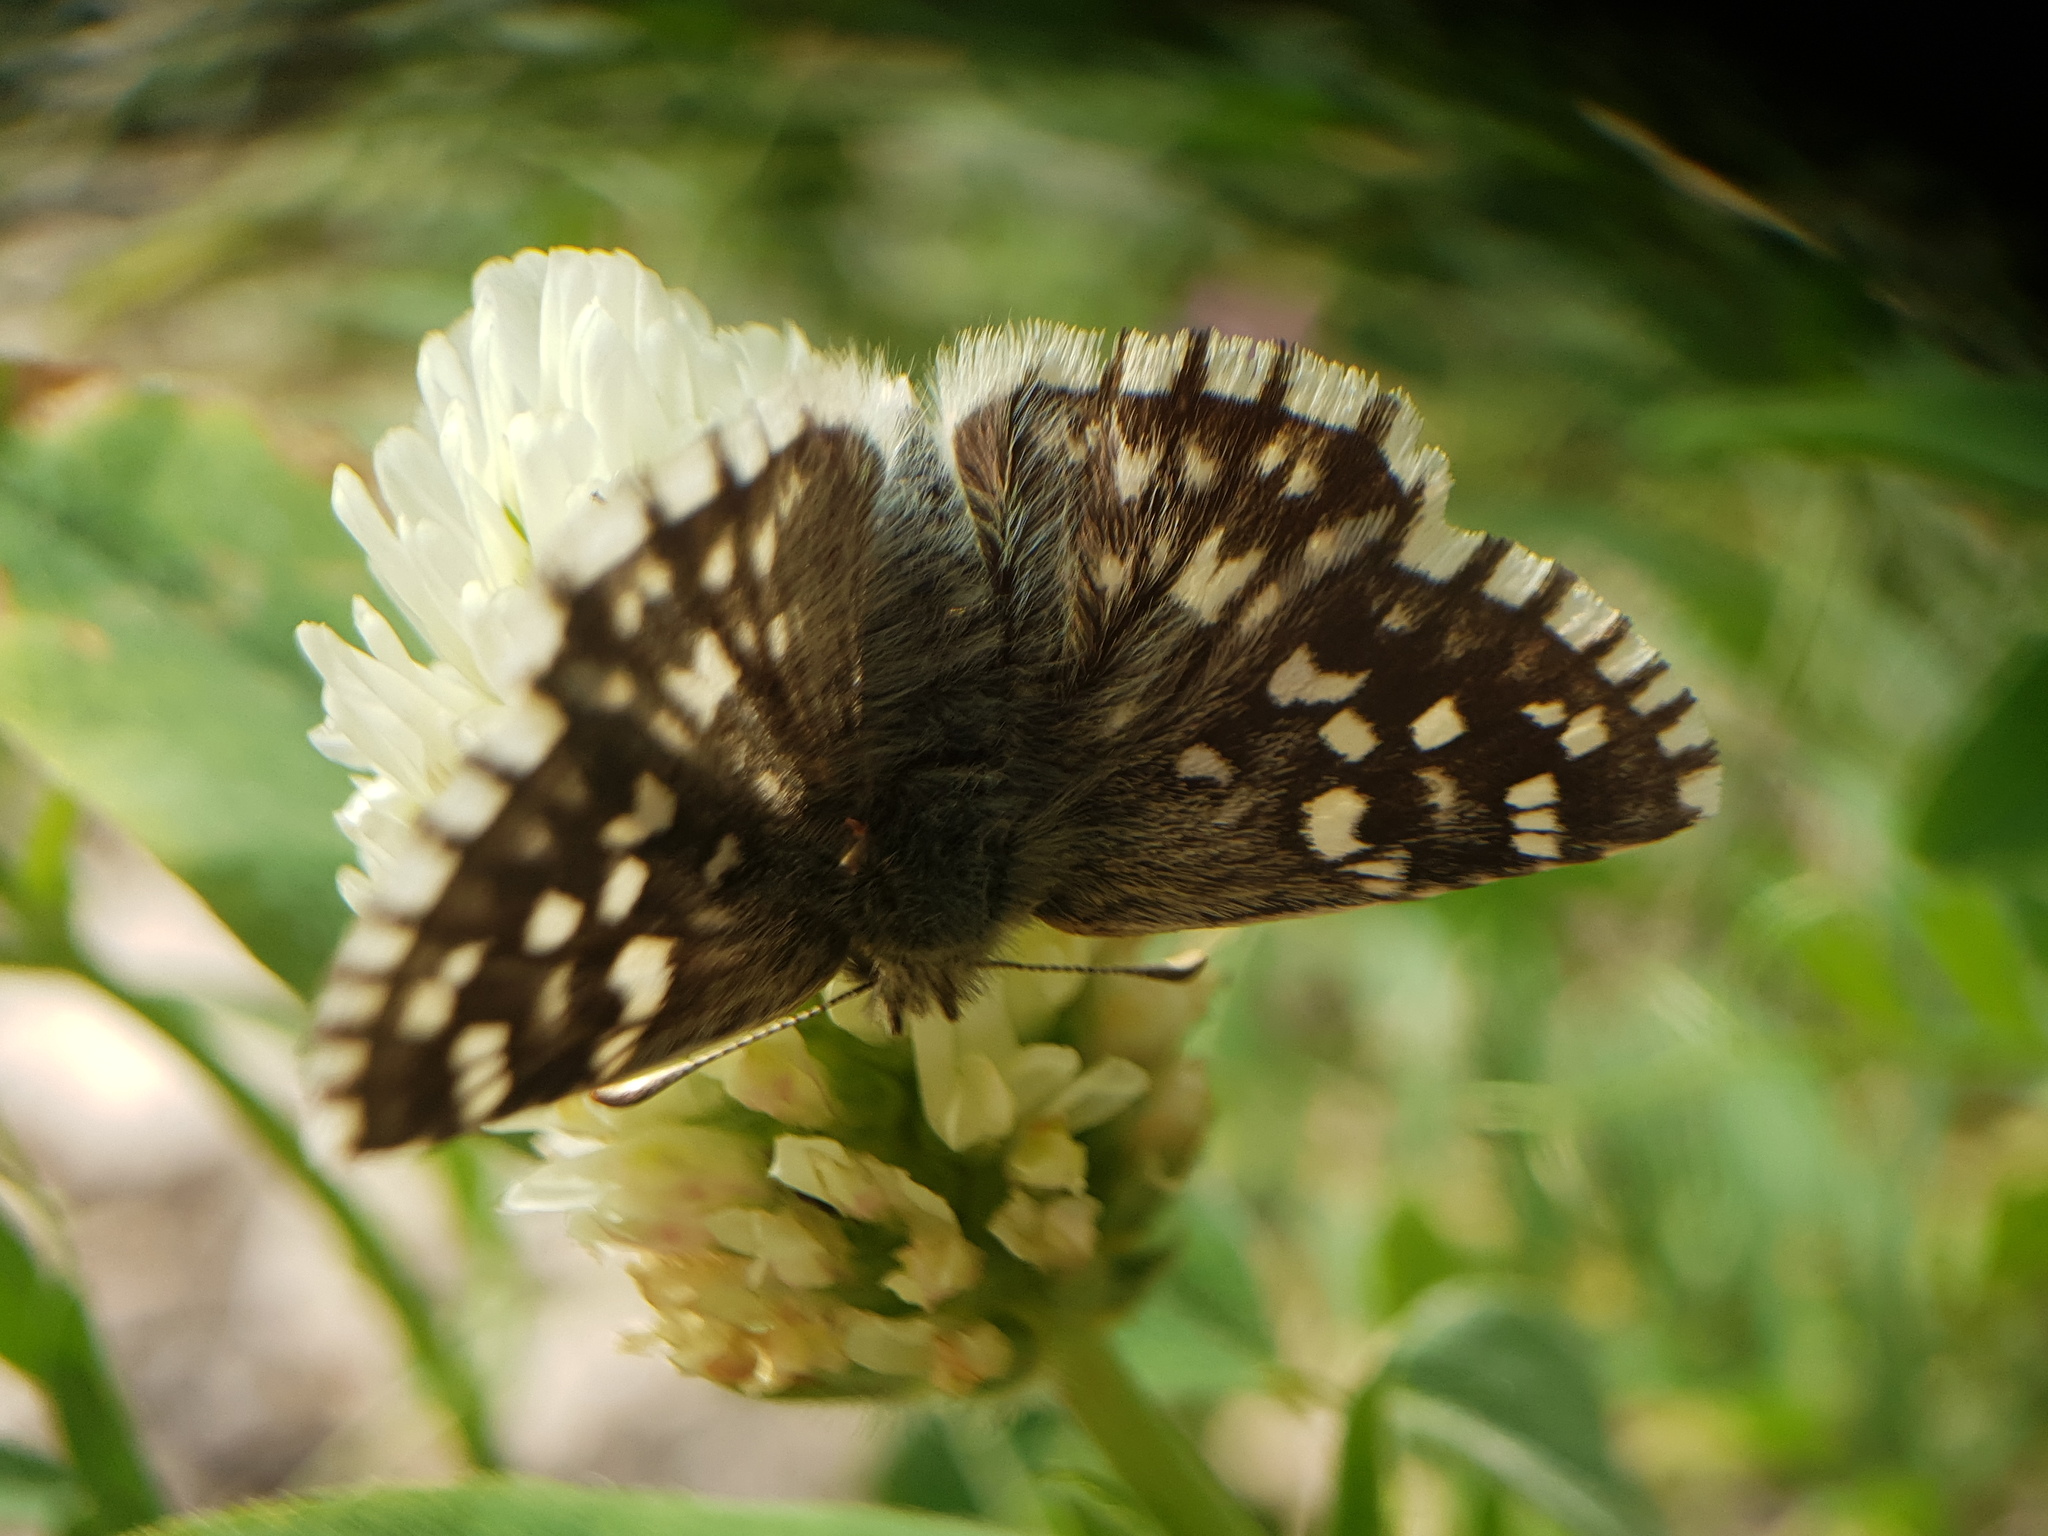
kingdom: Animalia
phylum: Arthropoda
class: Insecta
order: Lepidoptera
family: Hesperiidae
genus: Pyrgus
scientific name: Pyrgus melotis
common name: Aegean skipper
